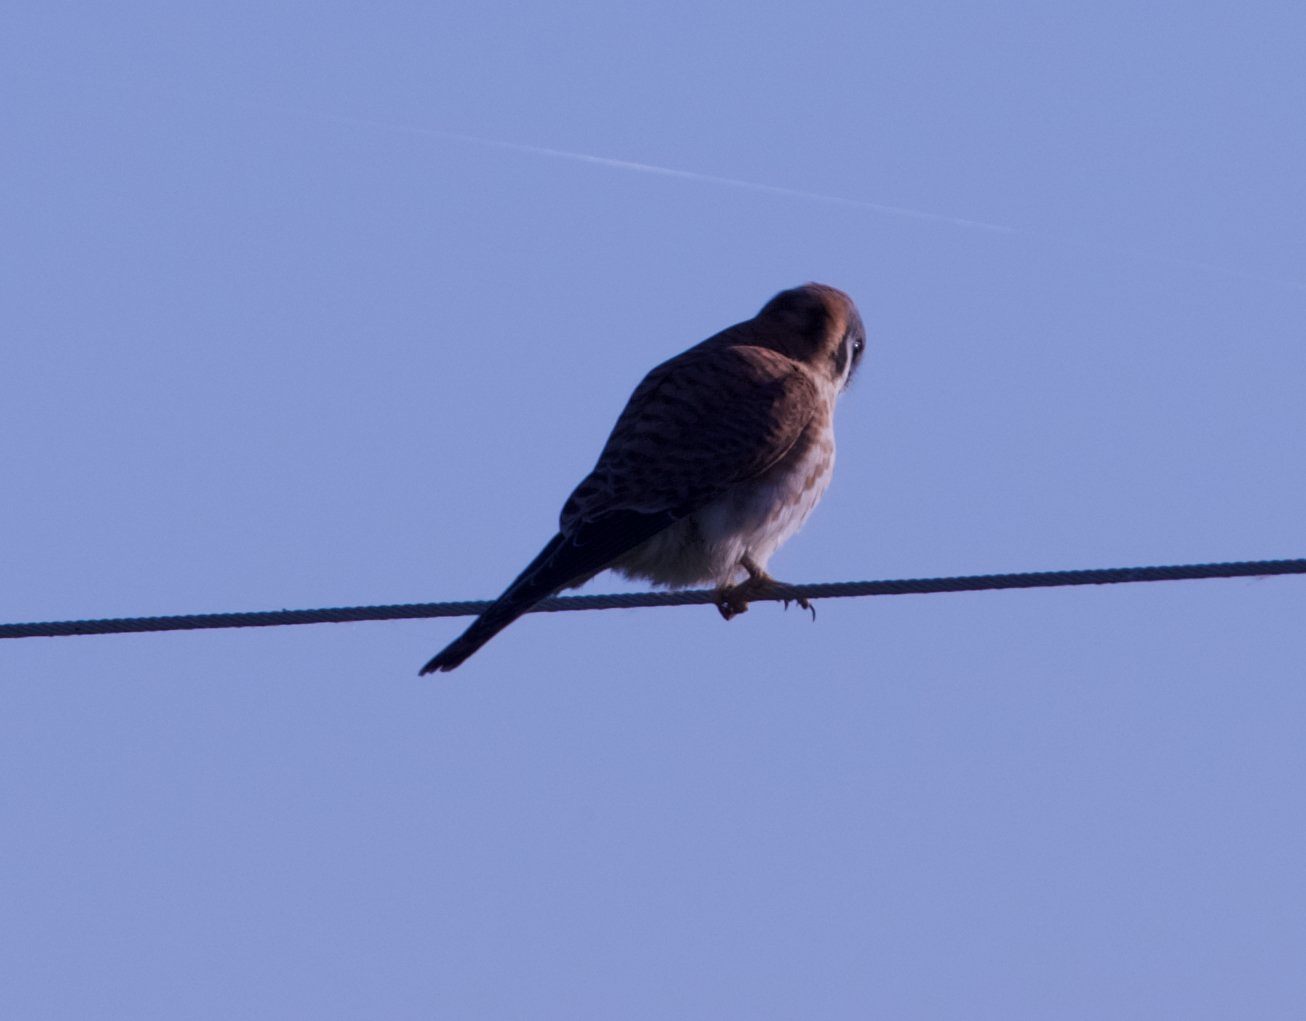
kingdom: Animalia
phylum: Chordata
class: Aves
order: Falconiformes
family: Falconidae
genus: Falco
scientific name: Falco sparverius
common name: American kestrel
